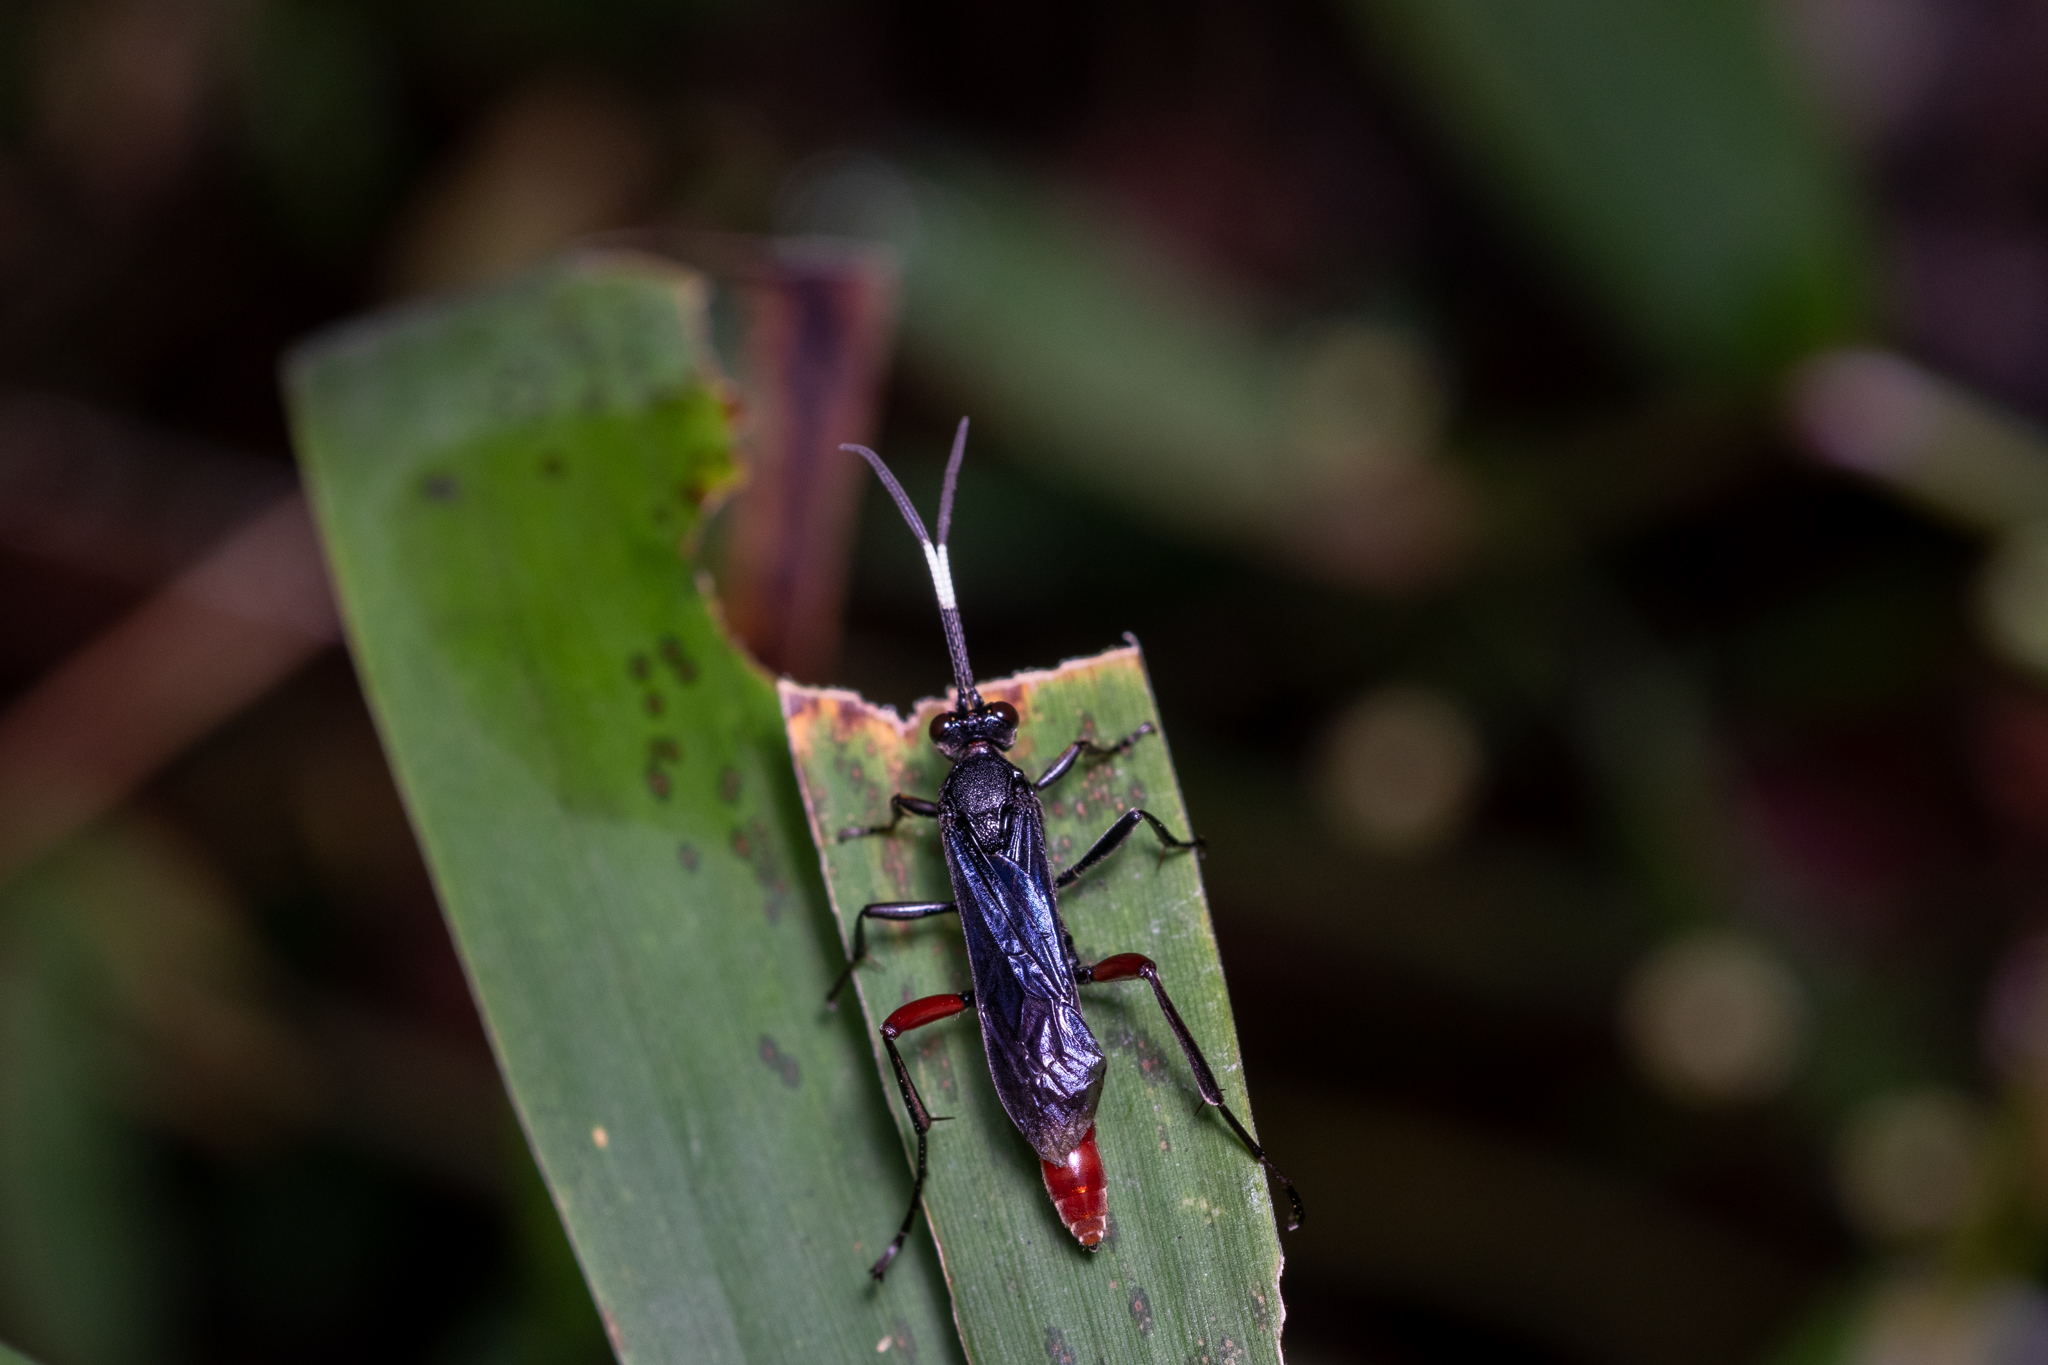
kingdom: Animalia
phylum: Arthropoda
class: Insecta
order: Hymenoptera
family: Ichneumonidae
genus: Limonethe
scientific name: Limonethe maurator
